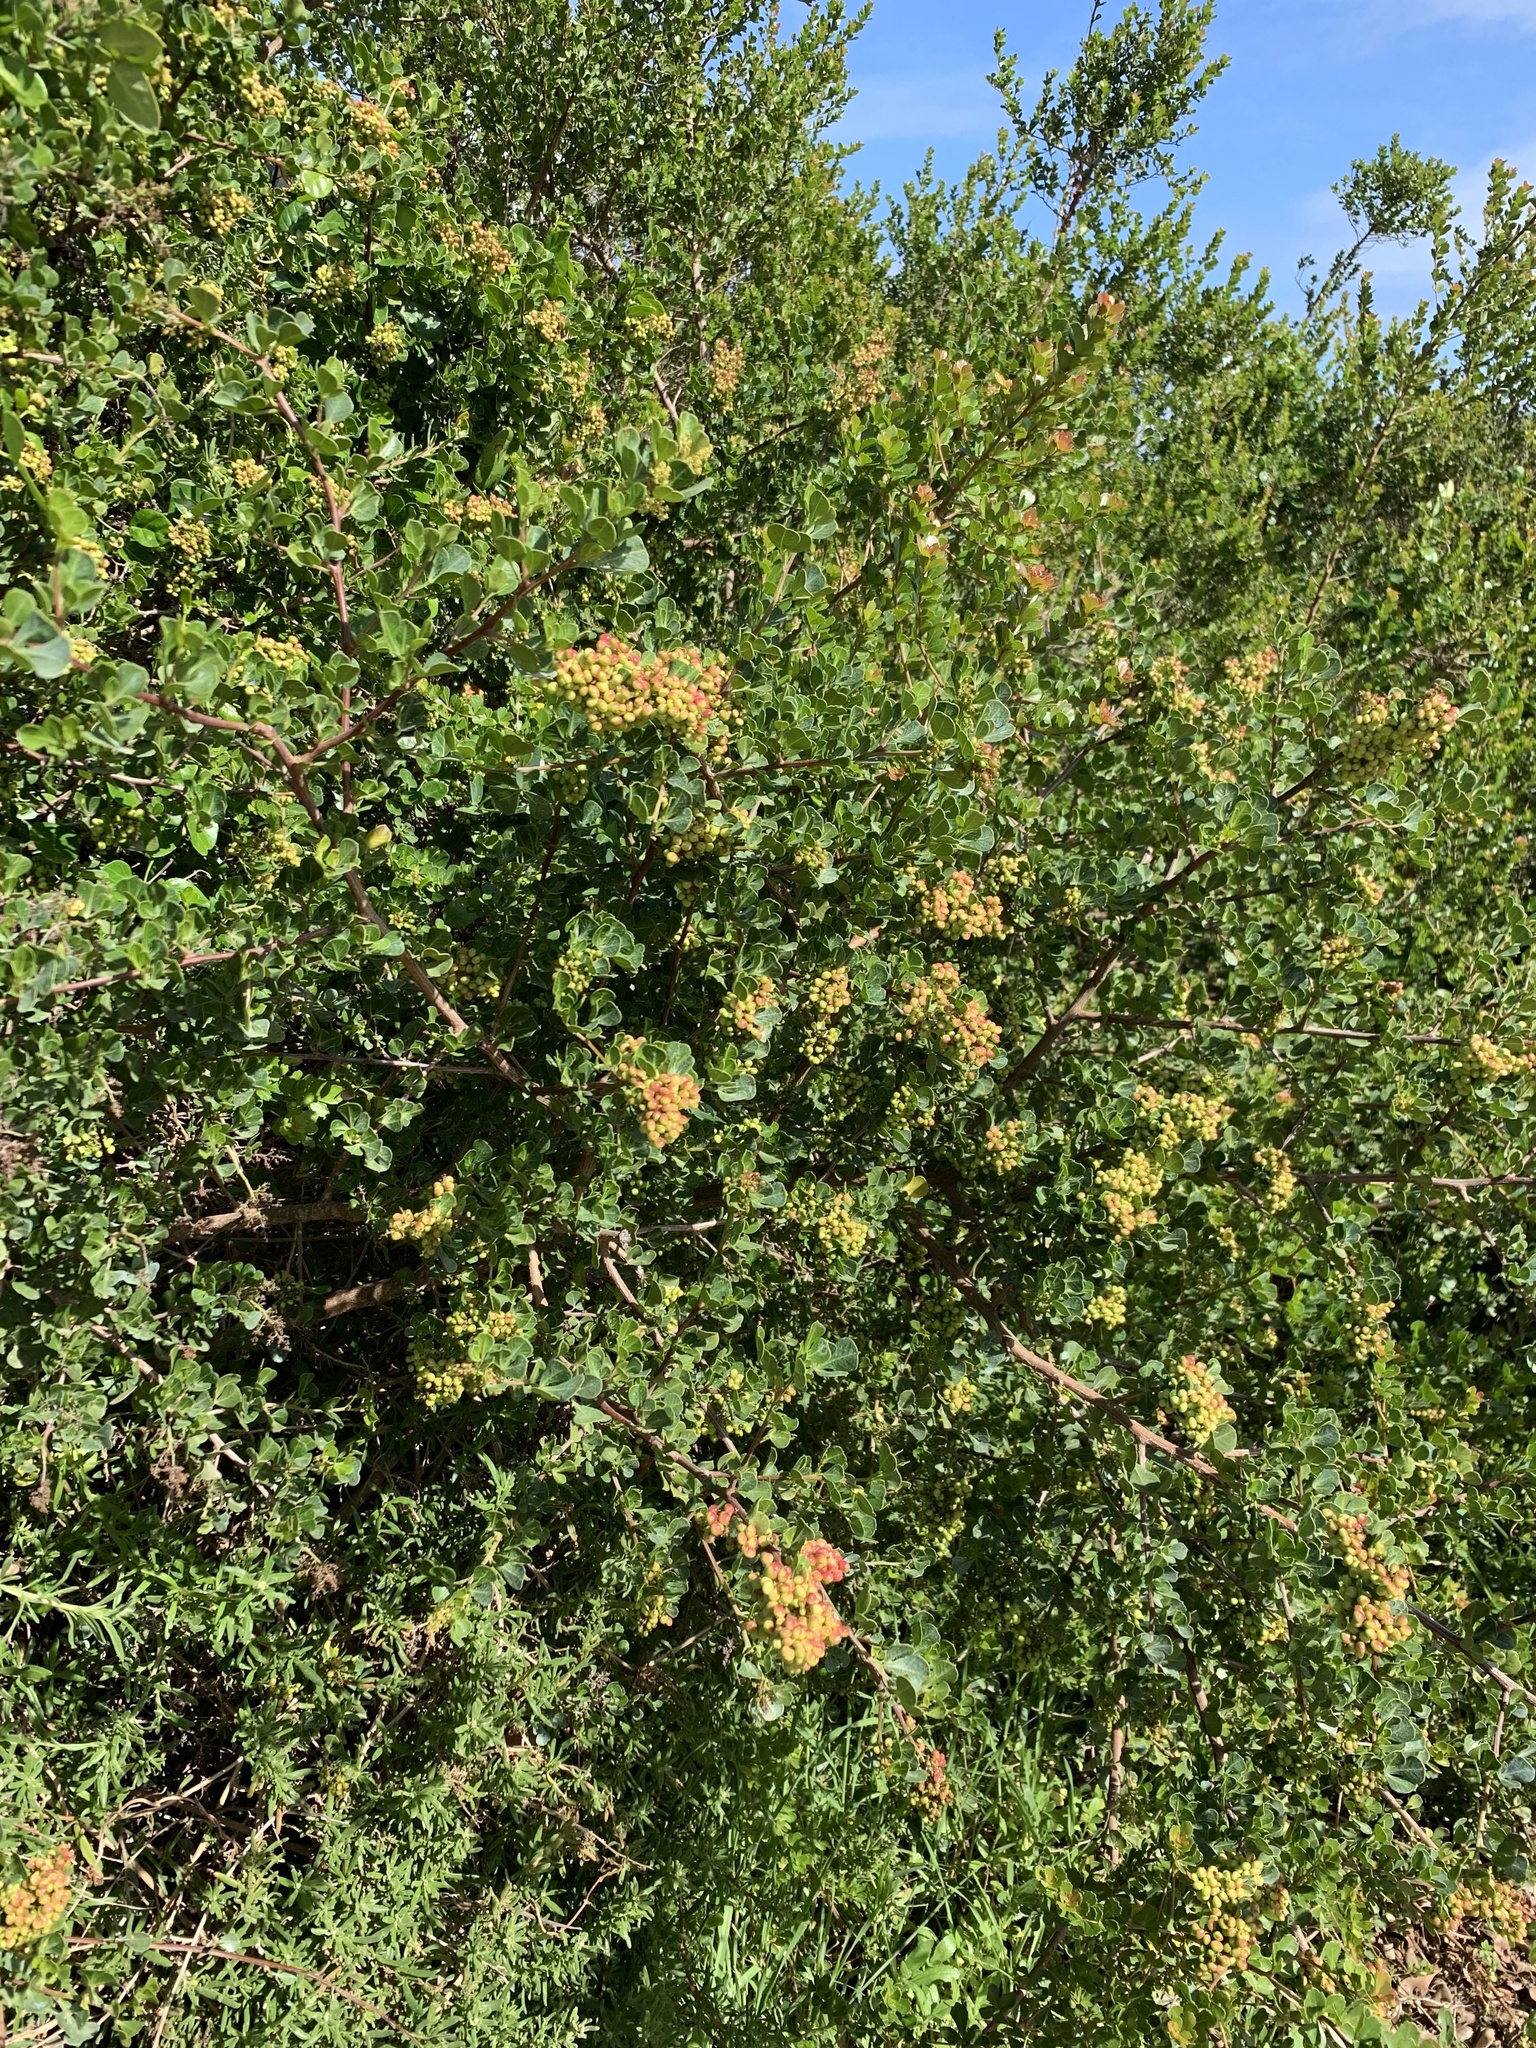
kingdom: Plantae
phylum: Tracheophyta
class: Magnoliopsida
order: Sapindales
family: Anacardiaceae
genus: Searsia
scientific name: Searsia glauca
